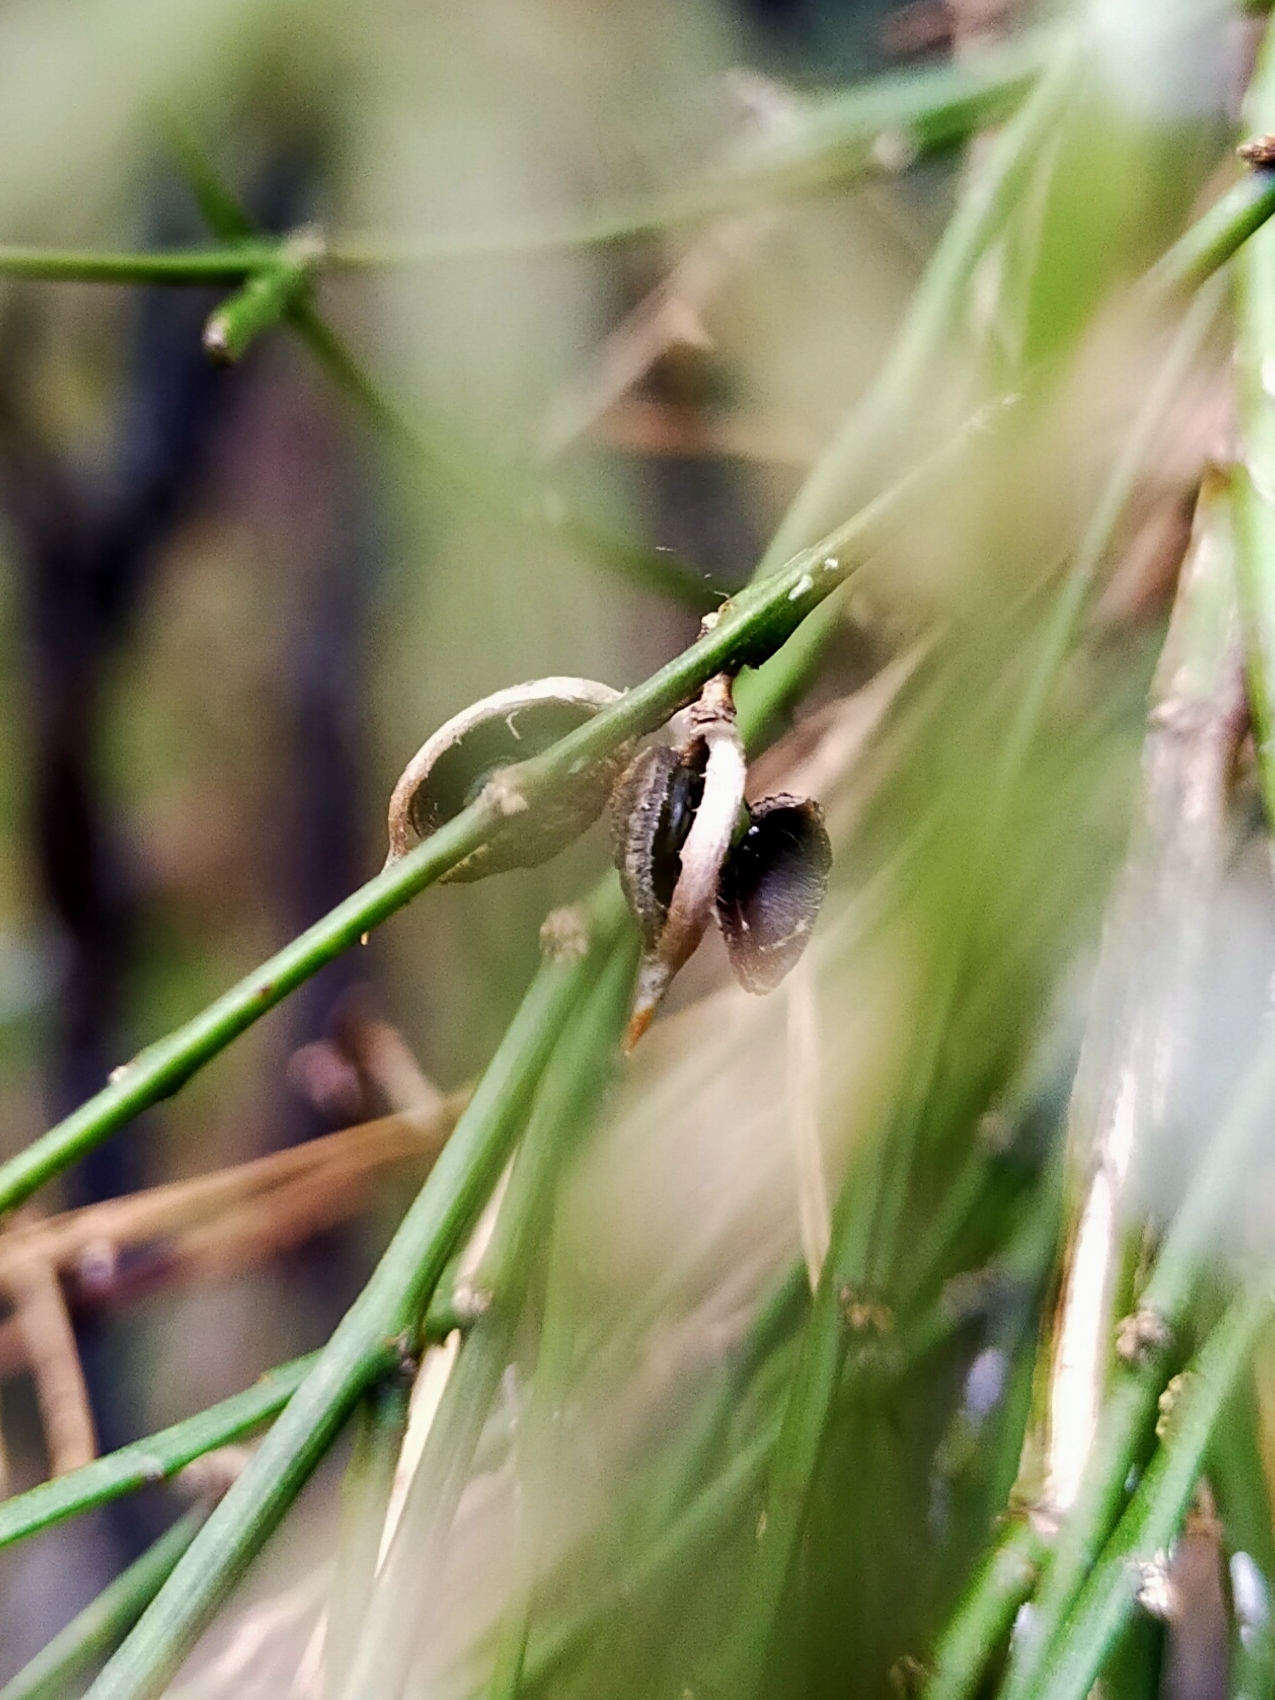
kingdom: Plantae
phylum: Tracheophyta
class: Magnoliopsida
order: Fabales
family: Fabaceae
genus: Carmichaelia
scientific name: Carmichaelia australis
